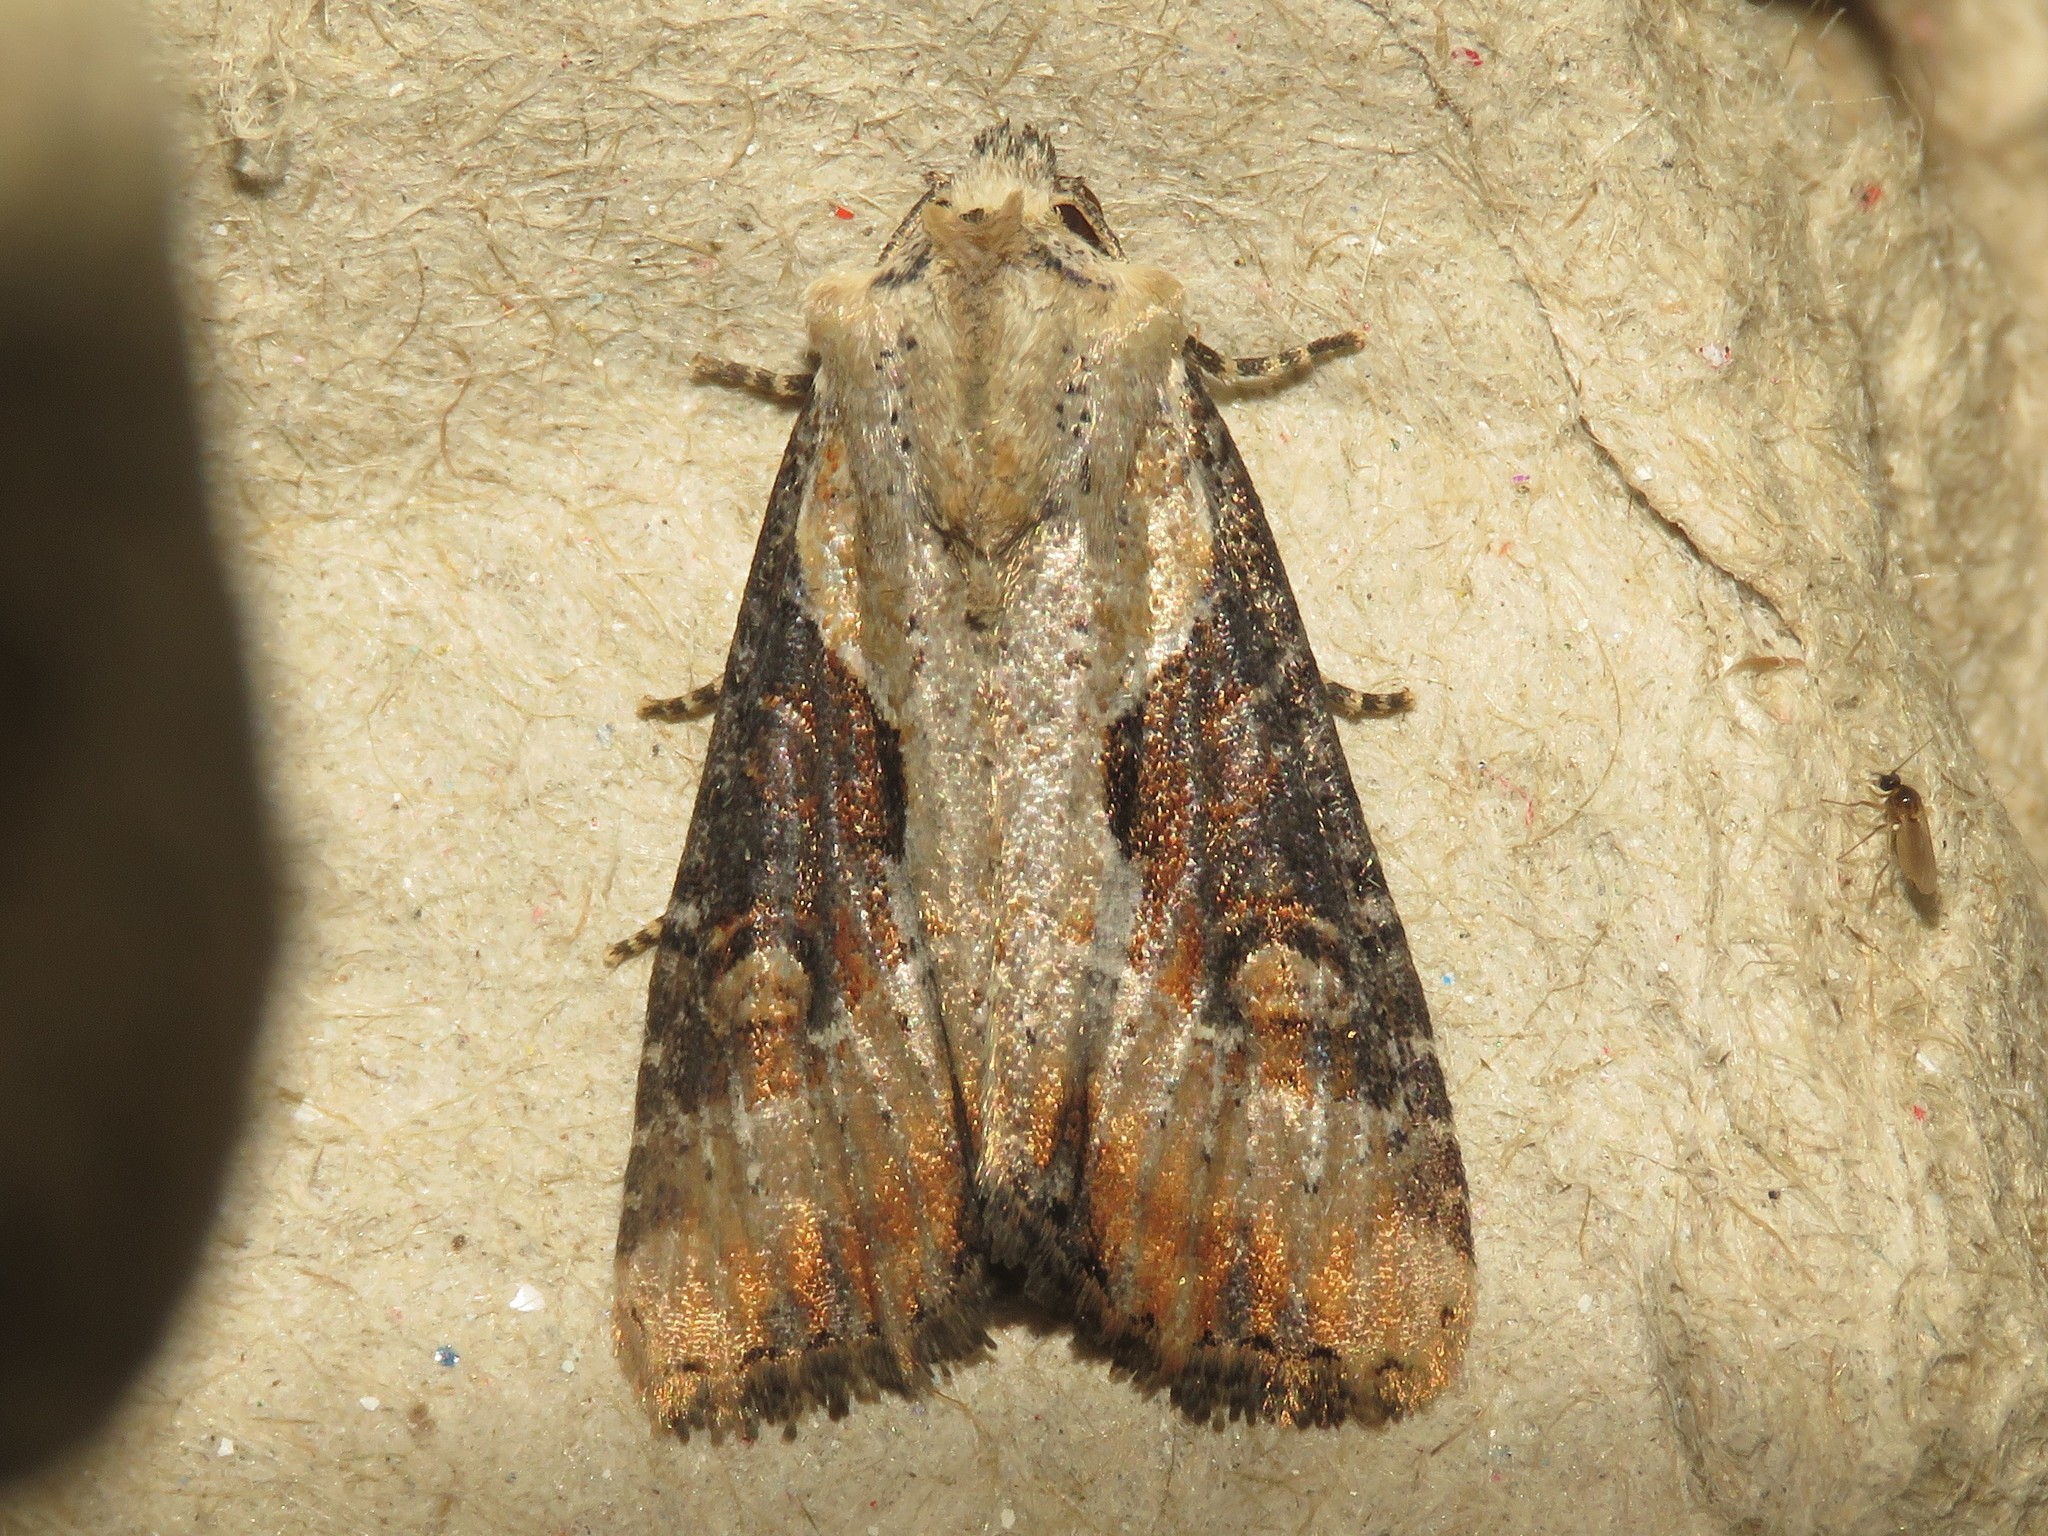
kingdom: Animalia
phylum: Arthropoda
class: Insecta
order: Lepidoptera
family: Noctuidae
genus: Lateroligia
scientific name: Lateroligia ophiogramma
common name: Double lobed
